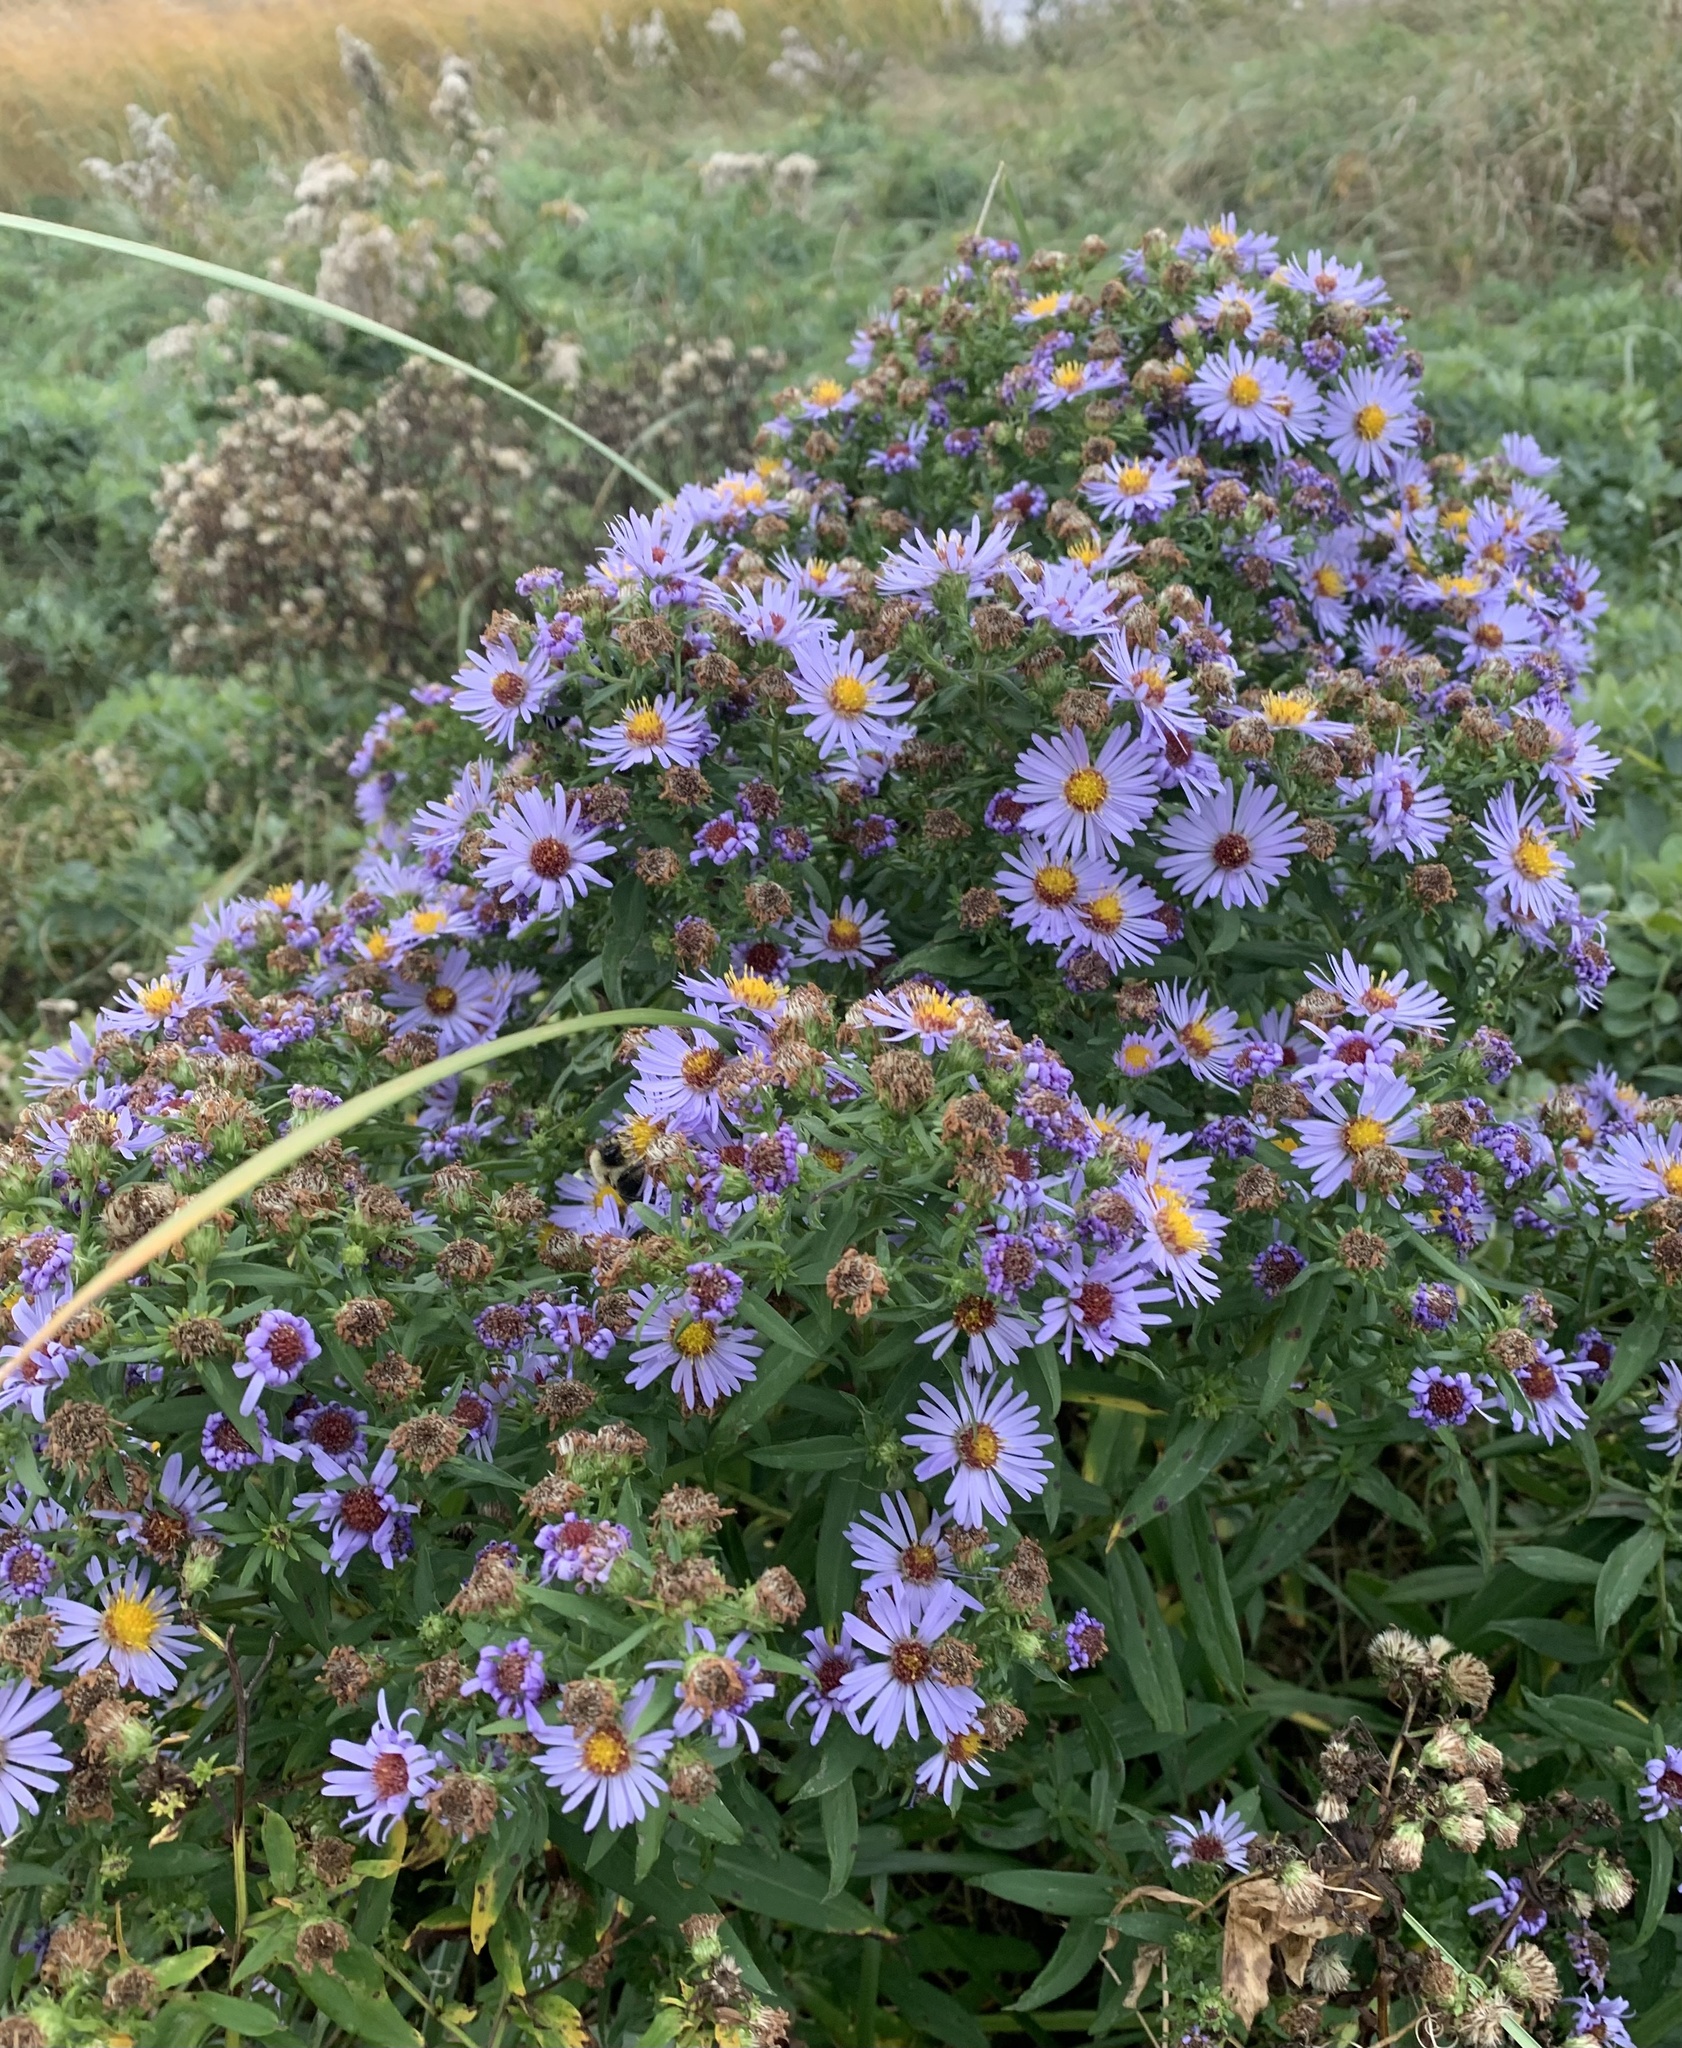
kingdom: Plantae
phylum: Tracheophyta
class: Magnoliopsida
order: Asterales
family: Asteraceae
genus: Symphyotrichum
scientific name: Symphyotrichum novi-belgii
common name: Michaelmas daisy
